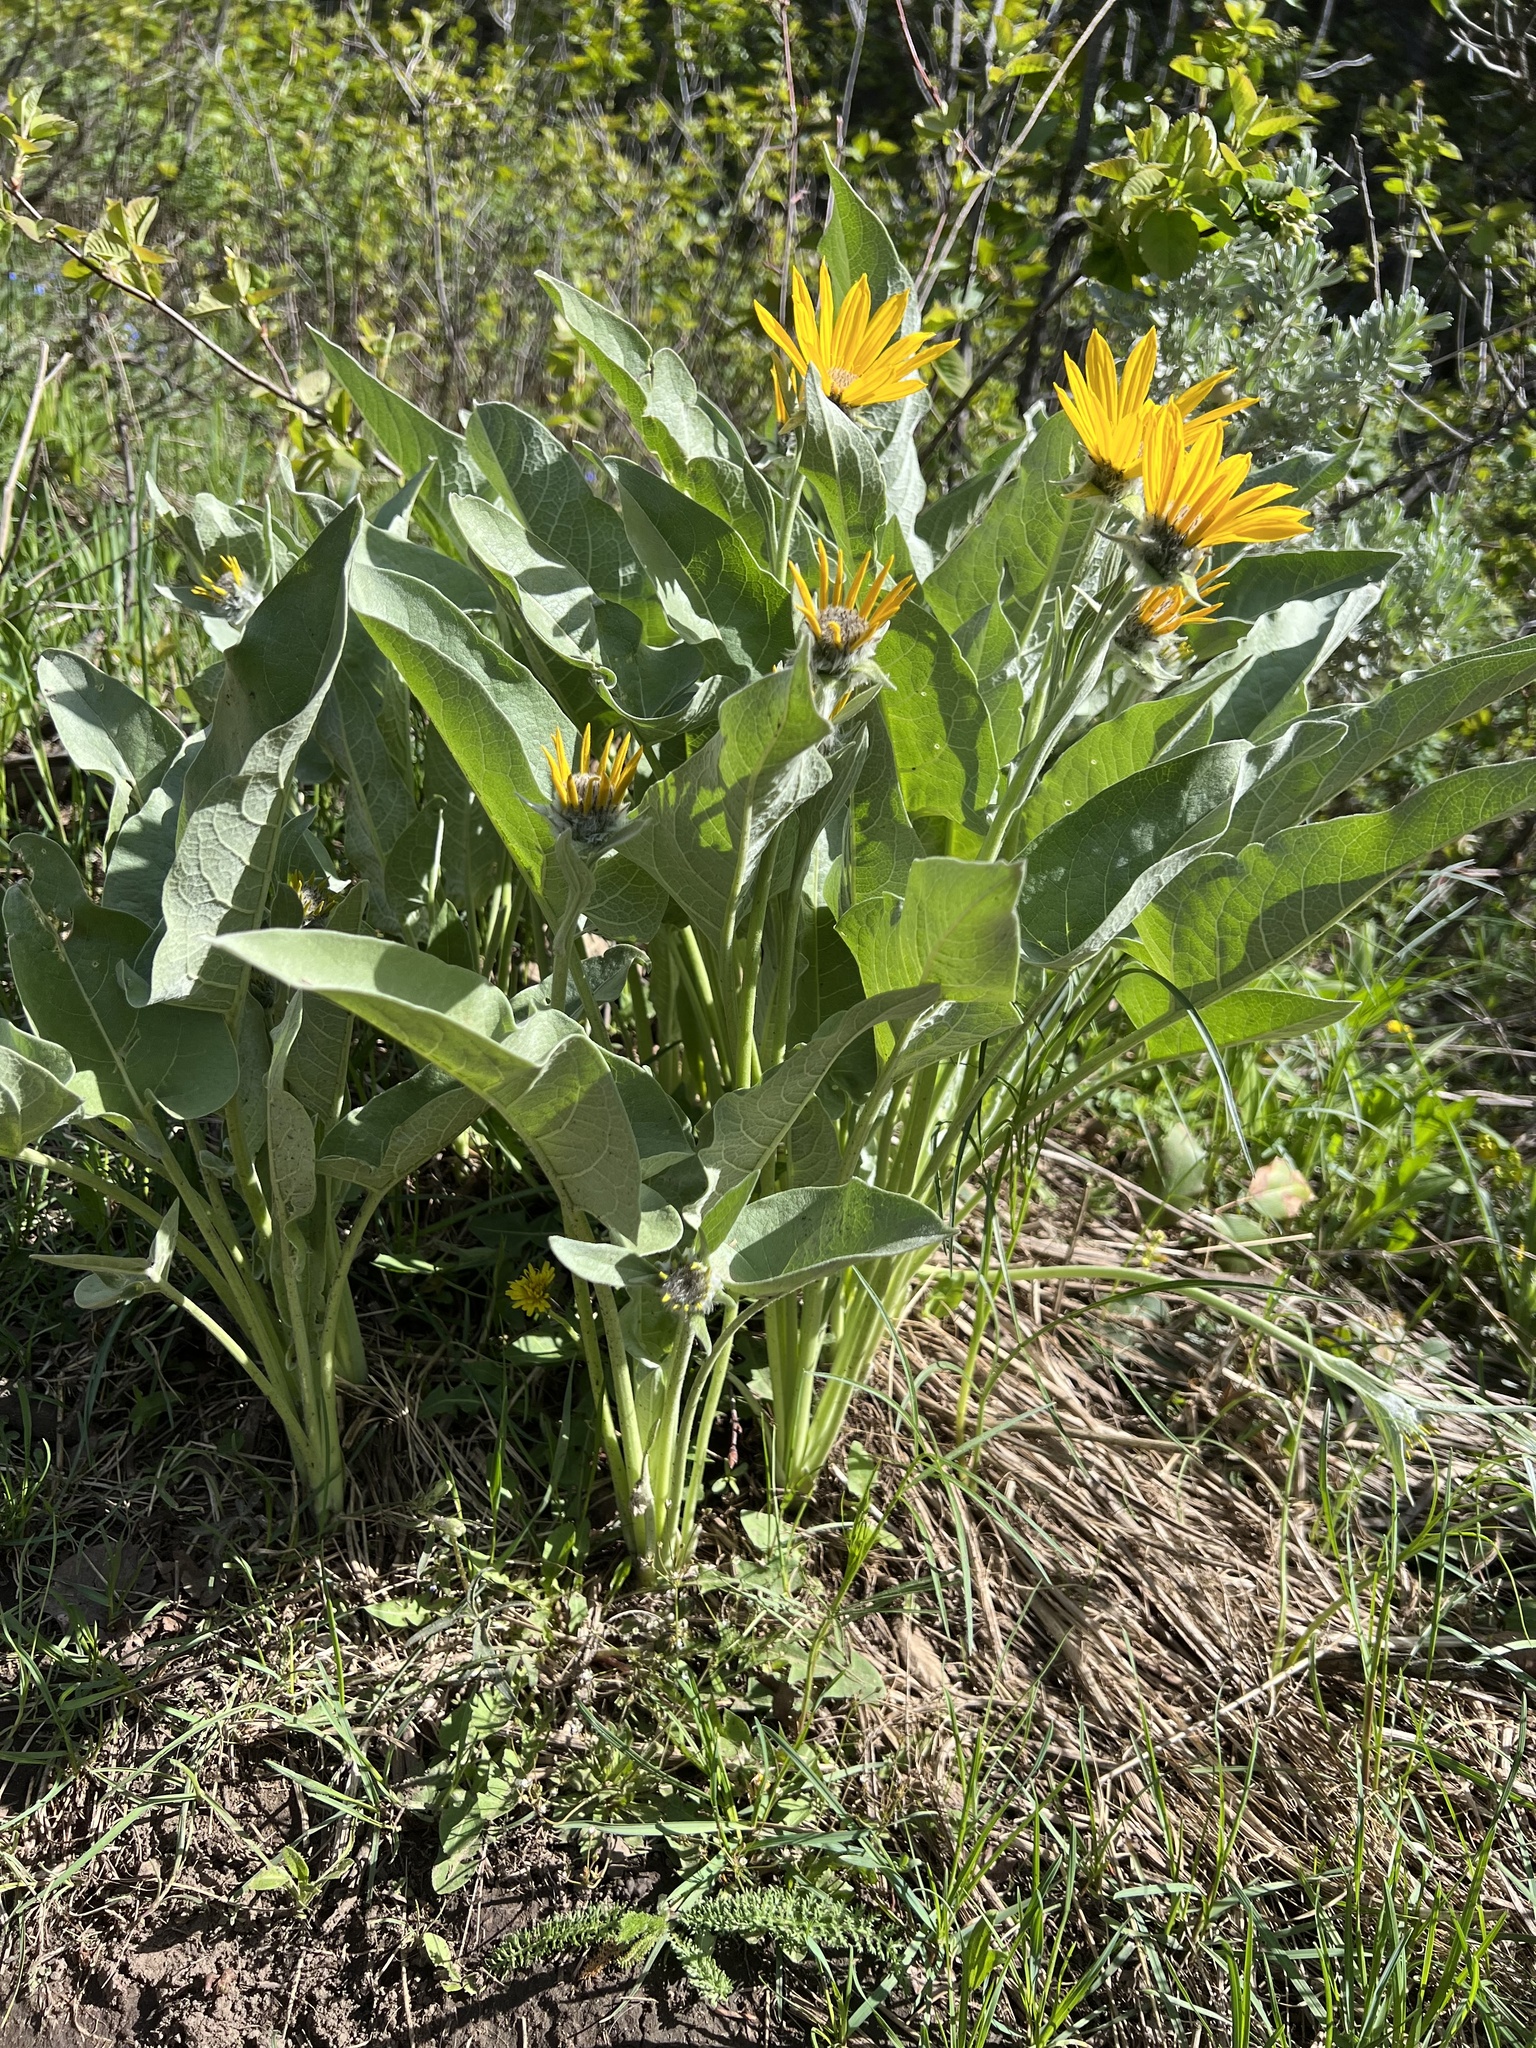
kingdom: Plantae
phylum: Tracheophyta
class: Magnoliopsida
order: Asterales
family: Asteraceae
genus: Wyethia
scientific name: Wyethia sagittata
